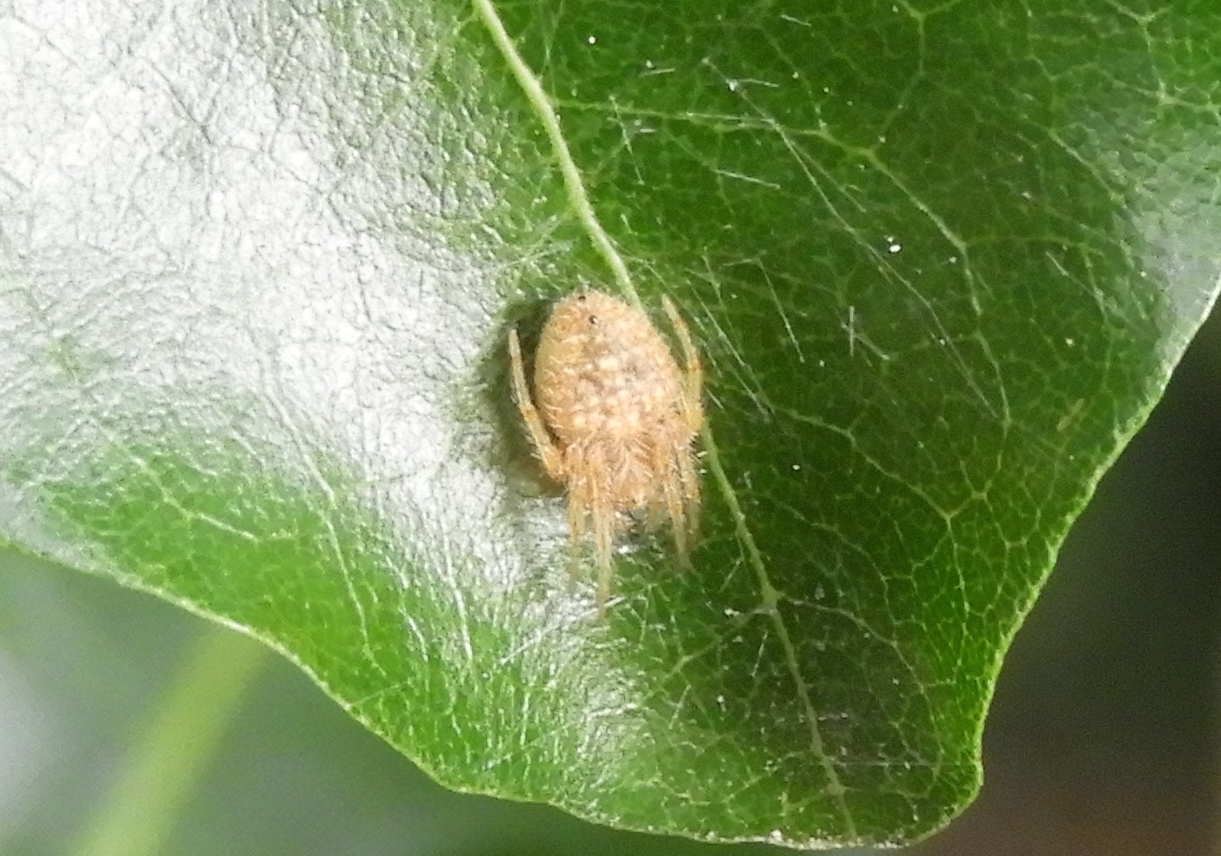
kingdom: Animalia
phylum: Arthropoda
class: Arachnida
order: Araneae
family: Araneidae
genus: Eriophora
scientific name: Eriophora
